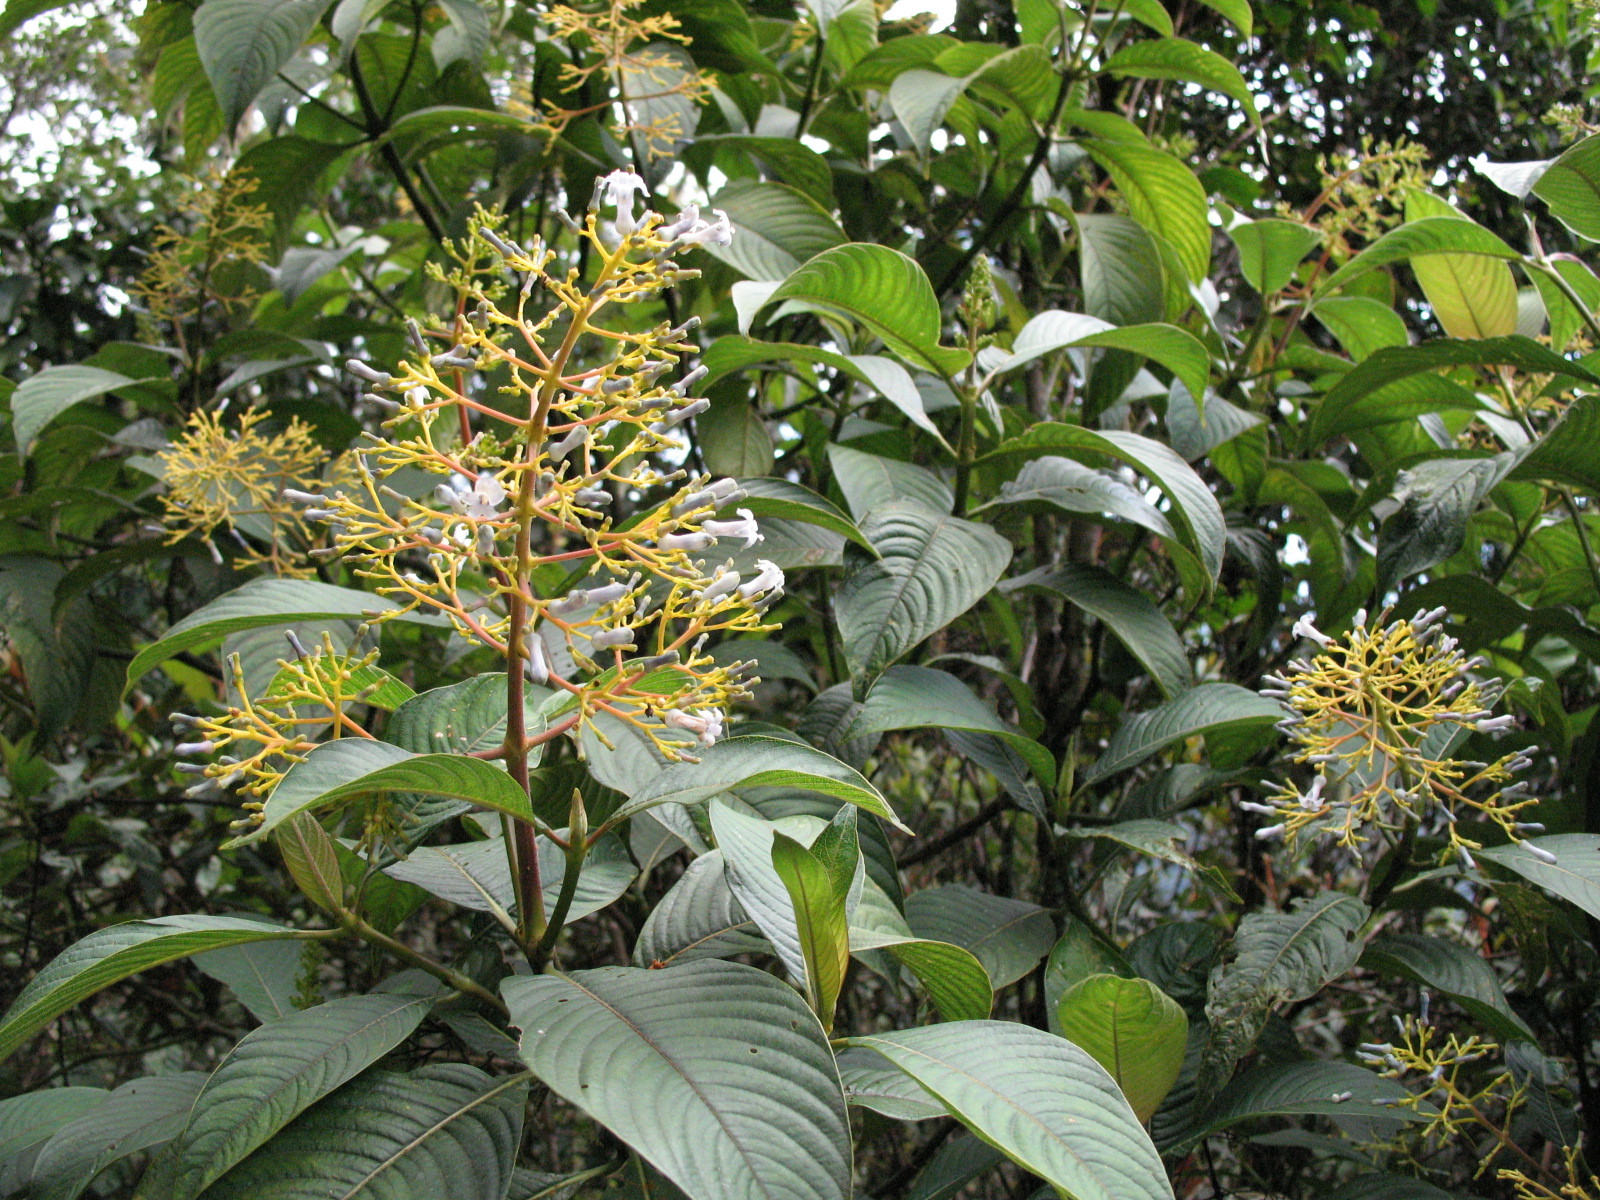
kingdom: Plantae
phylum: Tracheophyta
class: Magnoliopsida
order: Gentianales
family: Rubiaceae
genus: Palicourea
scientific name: Palicourea weberbaueri
